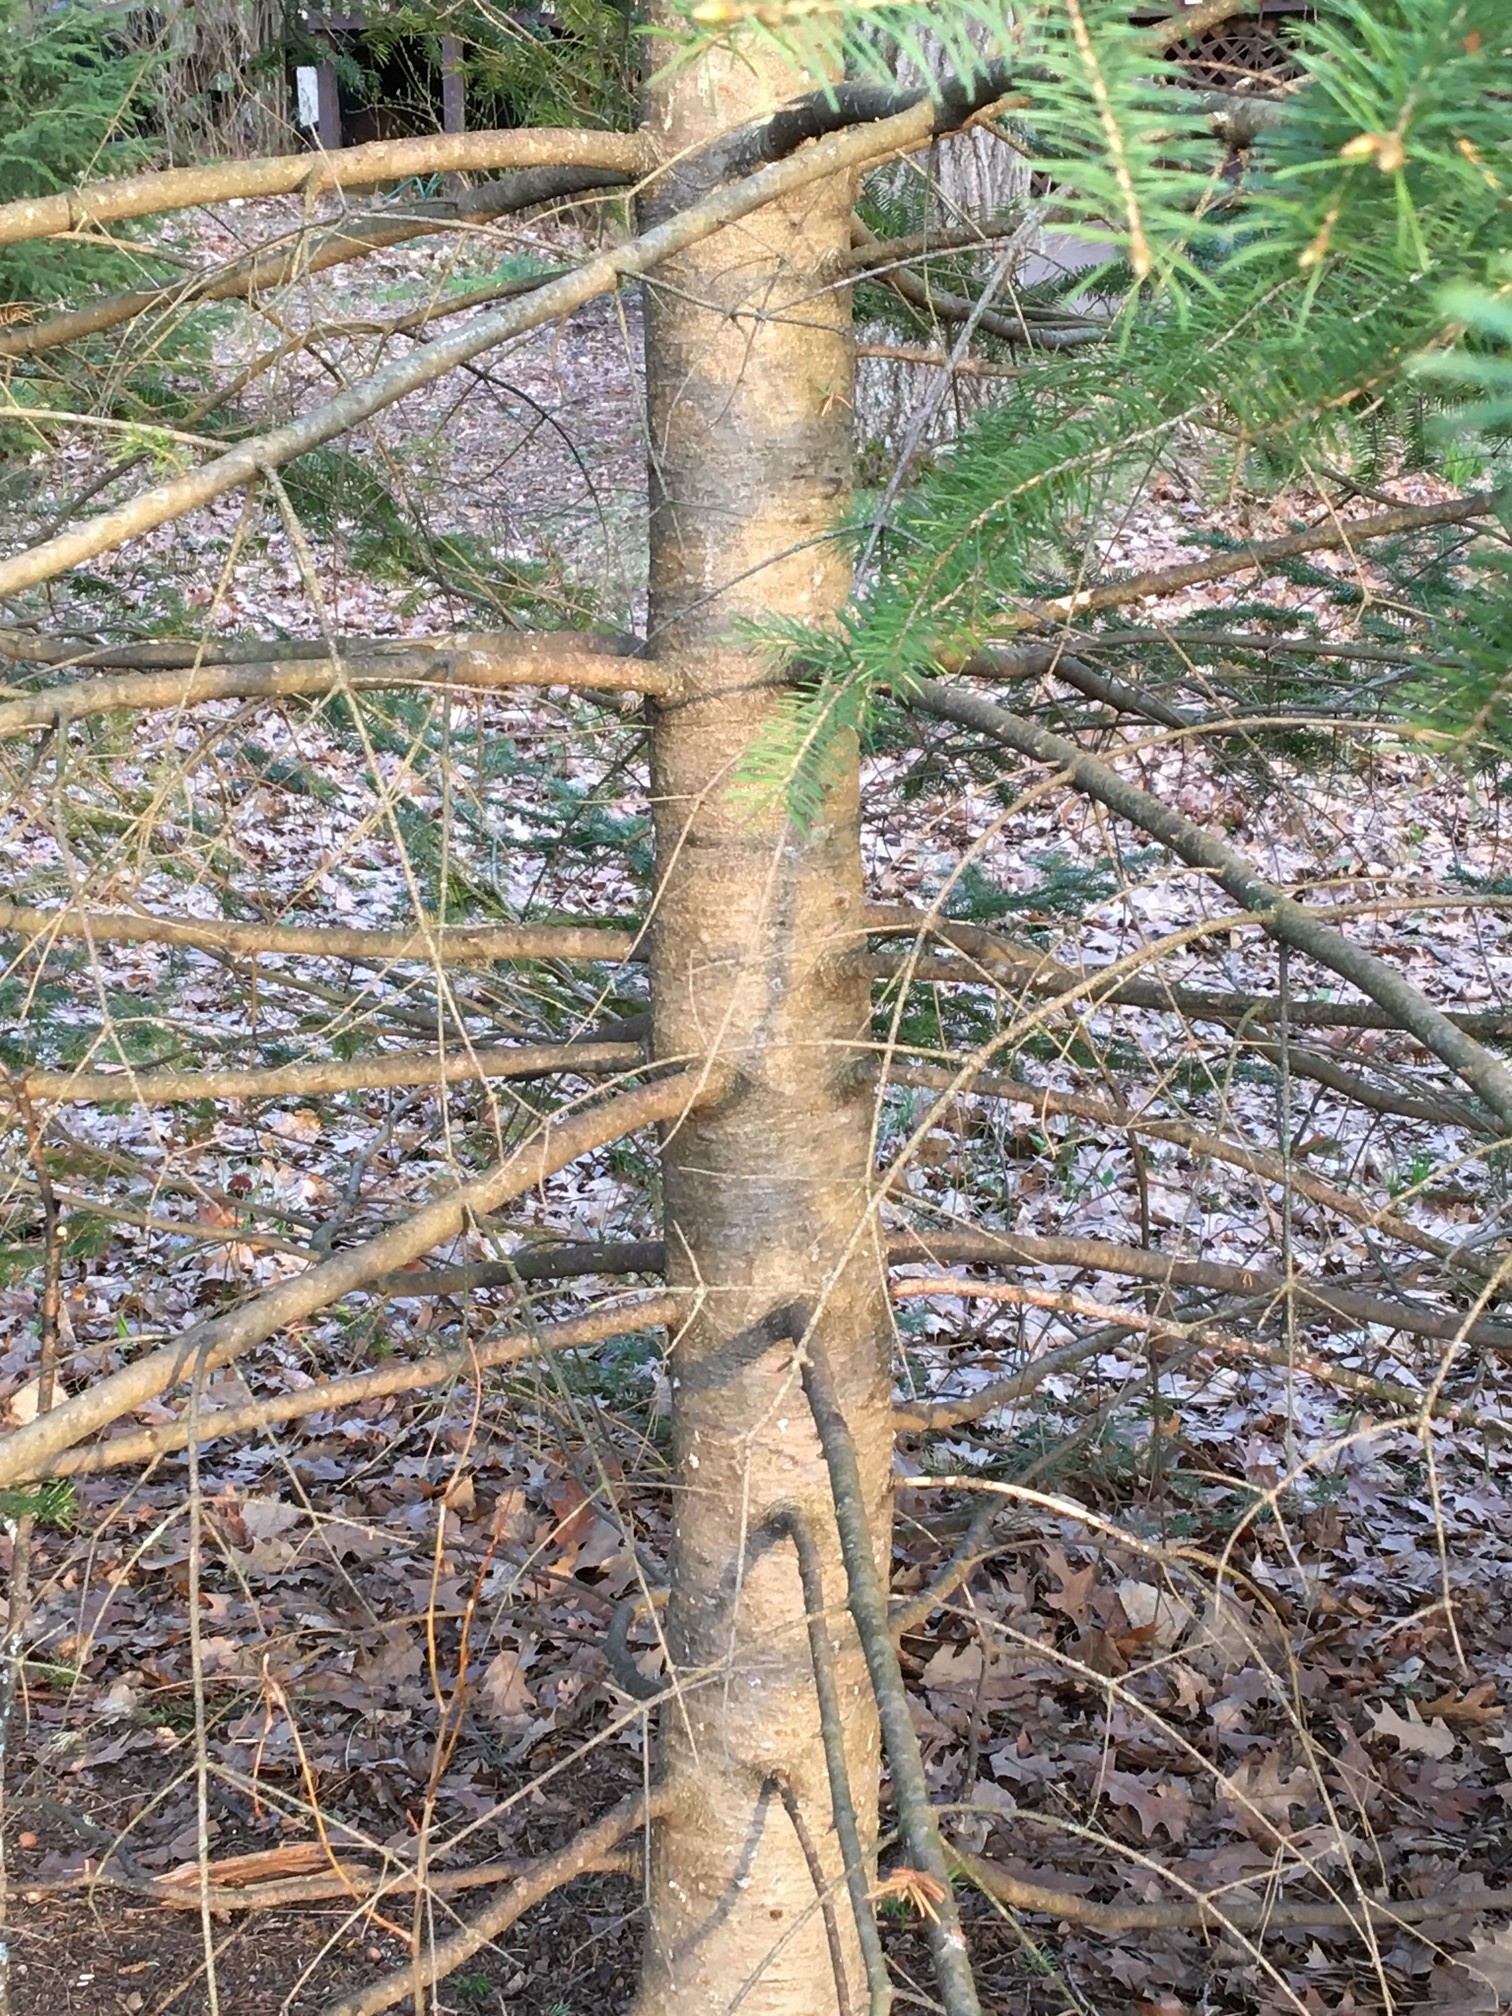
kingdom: Plantae
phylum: Tracheophyta
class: Pinopsida
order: Pinales
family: Pinaceae
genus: Abies
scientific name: Abies balsamea
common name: Balsam fir
